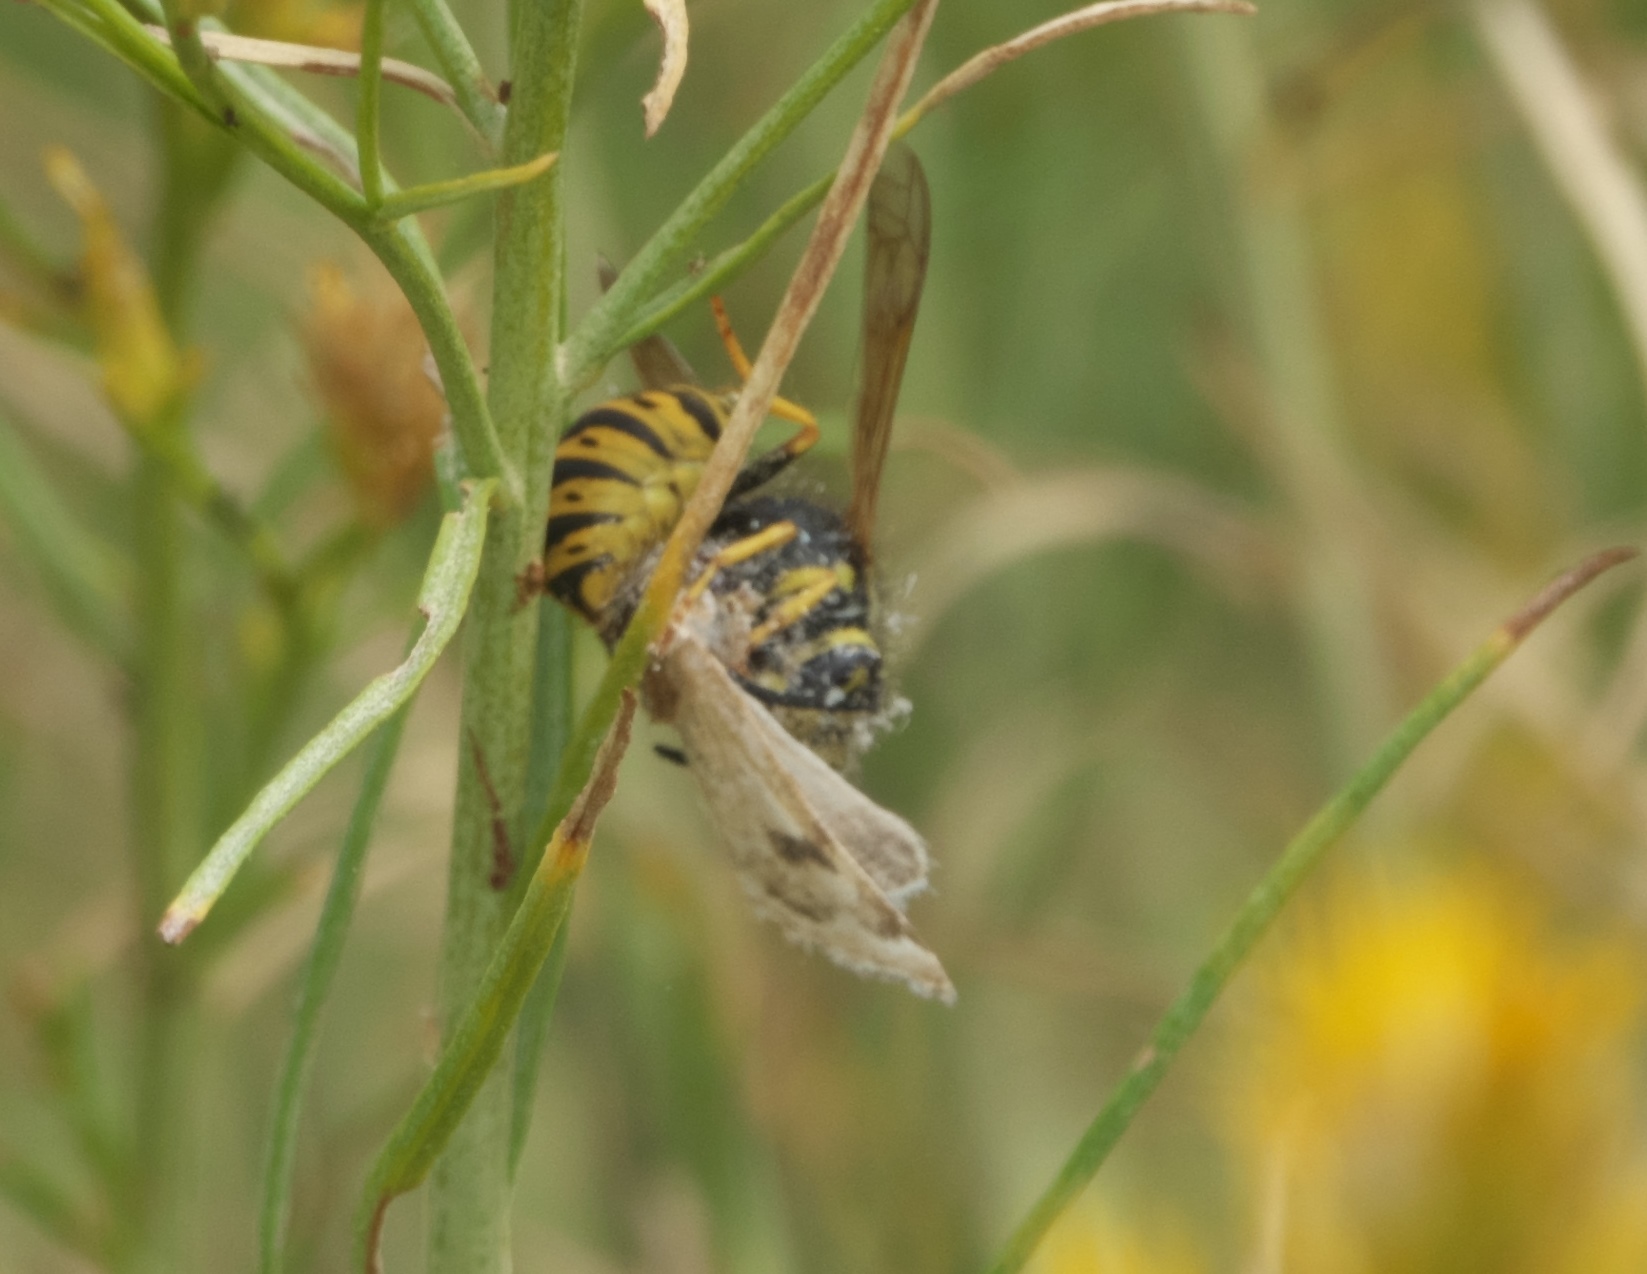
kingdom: Animalia
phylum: Arthropoda
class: Insecta
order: Hymenoptera
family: Vespidae
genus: Vespula
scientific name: Vespula atropilosa
